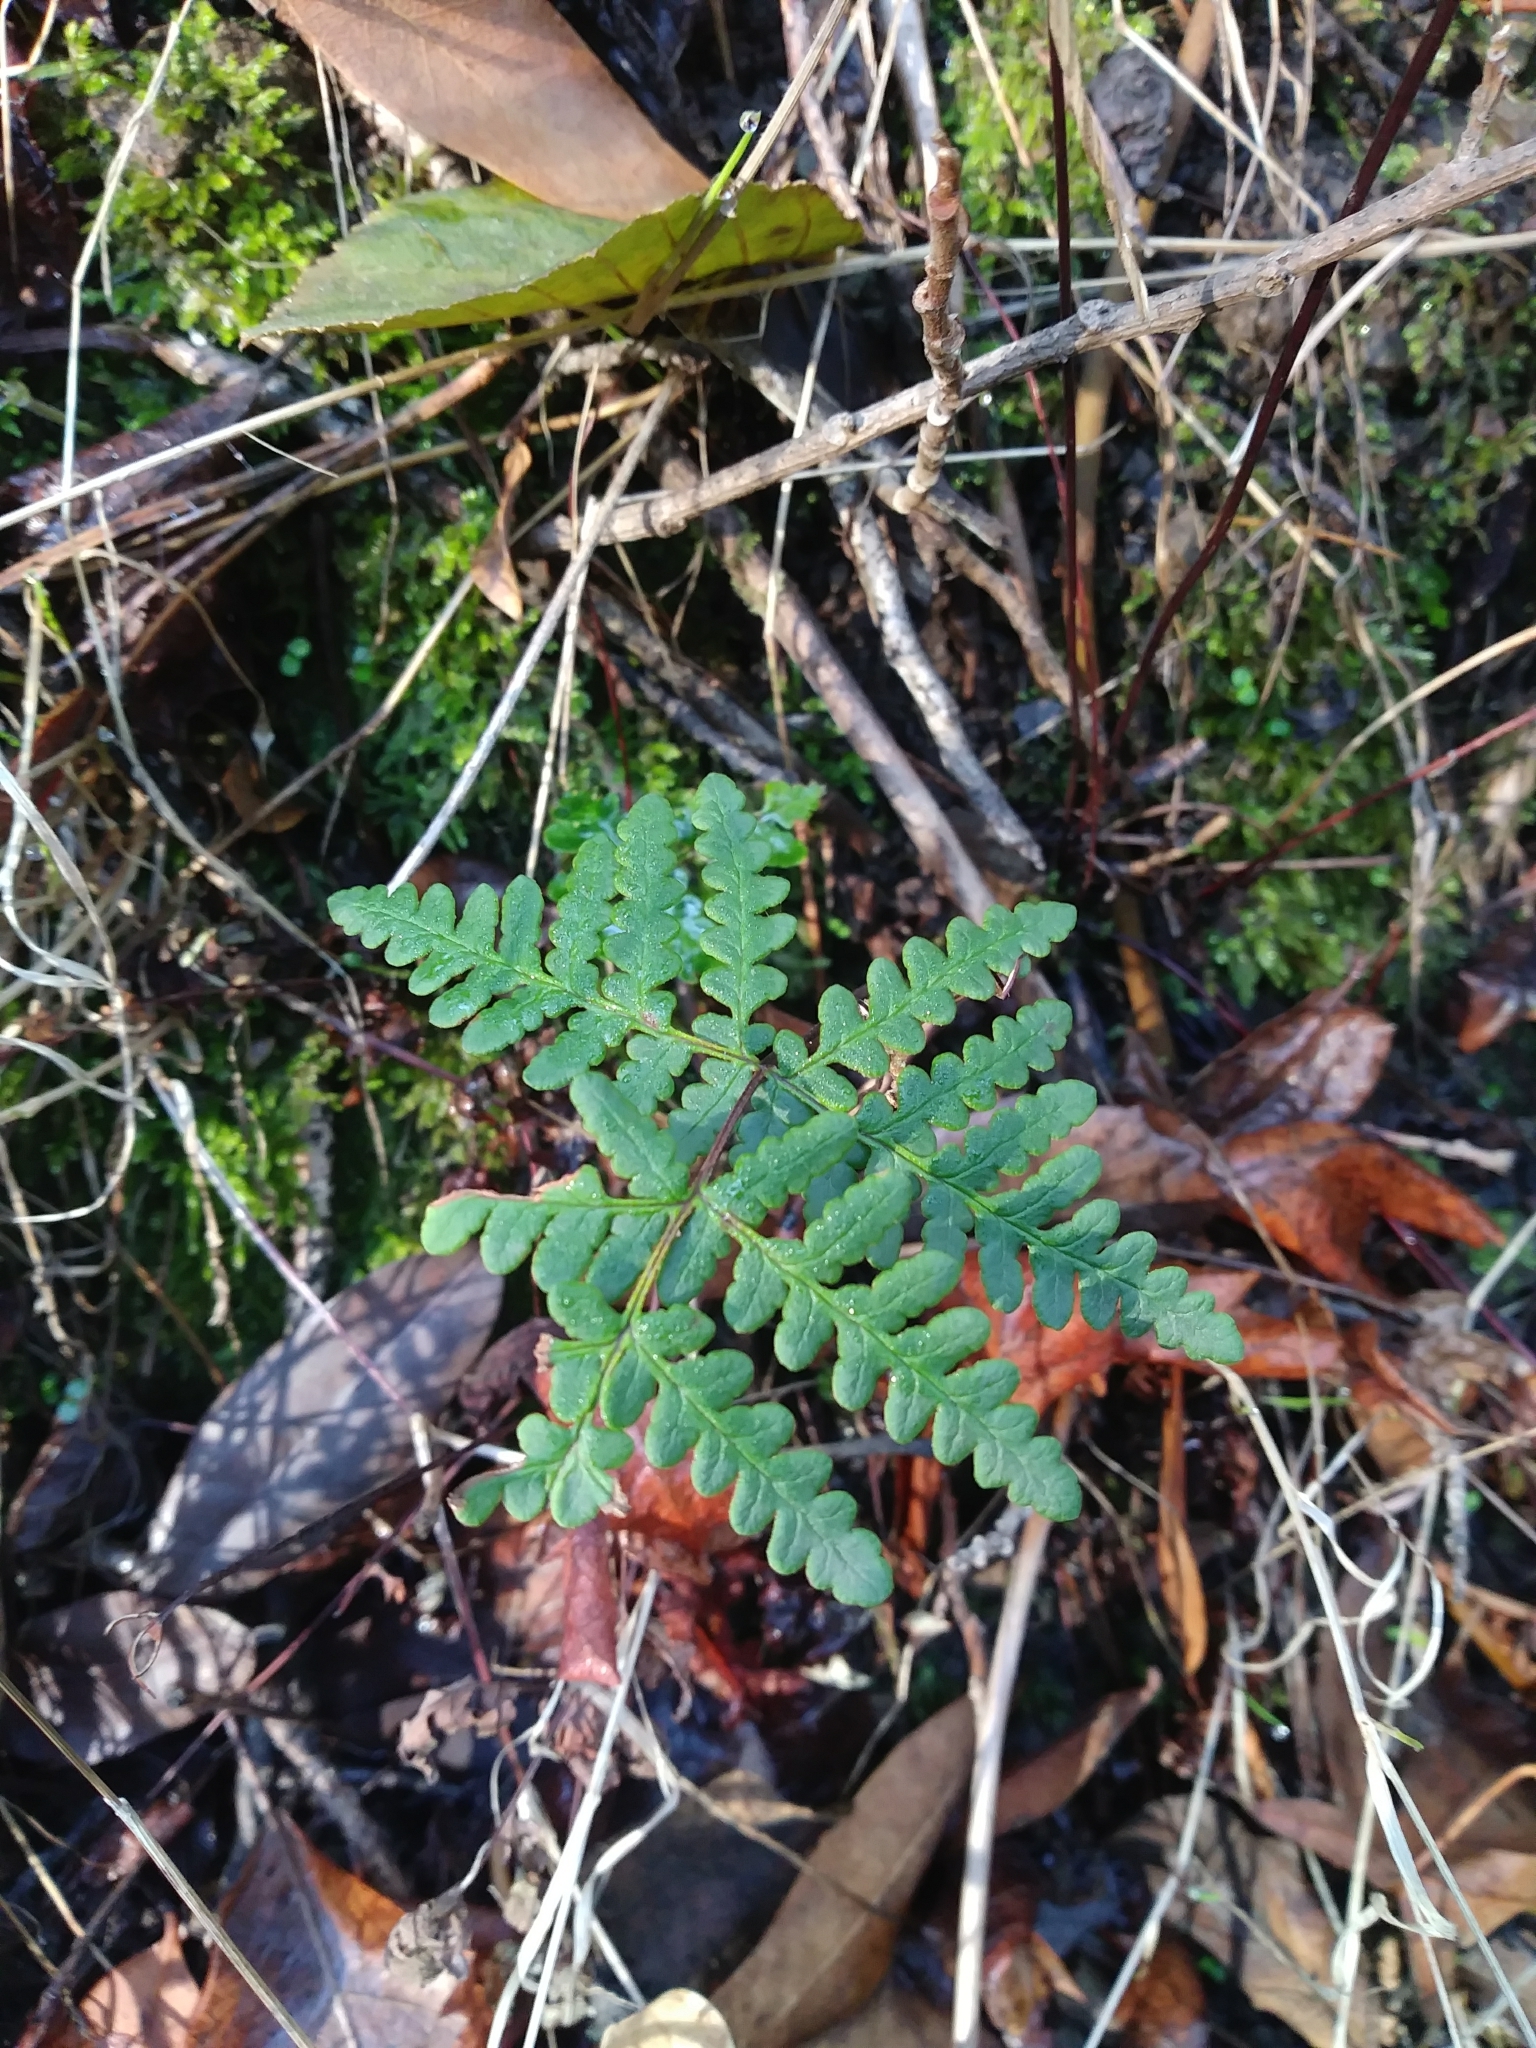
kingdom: Plantae
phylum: Tracheophyta
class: Polypodiopsida
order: Polypodiales
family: Pteridaceae
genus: Pentagramma
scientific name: Pentagramma triangularis
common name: Gold fern
